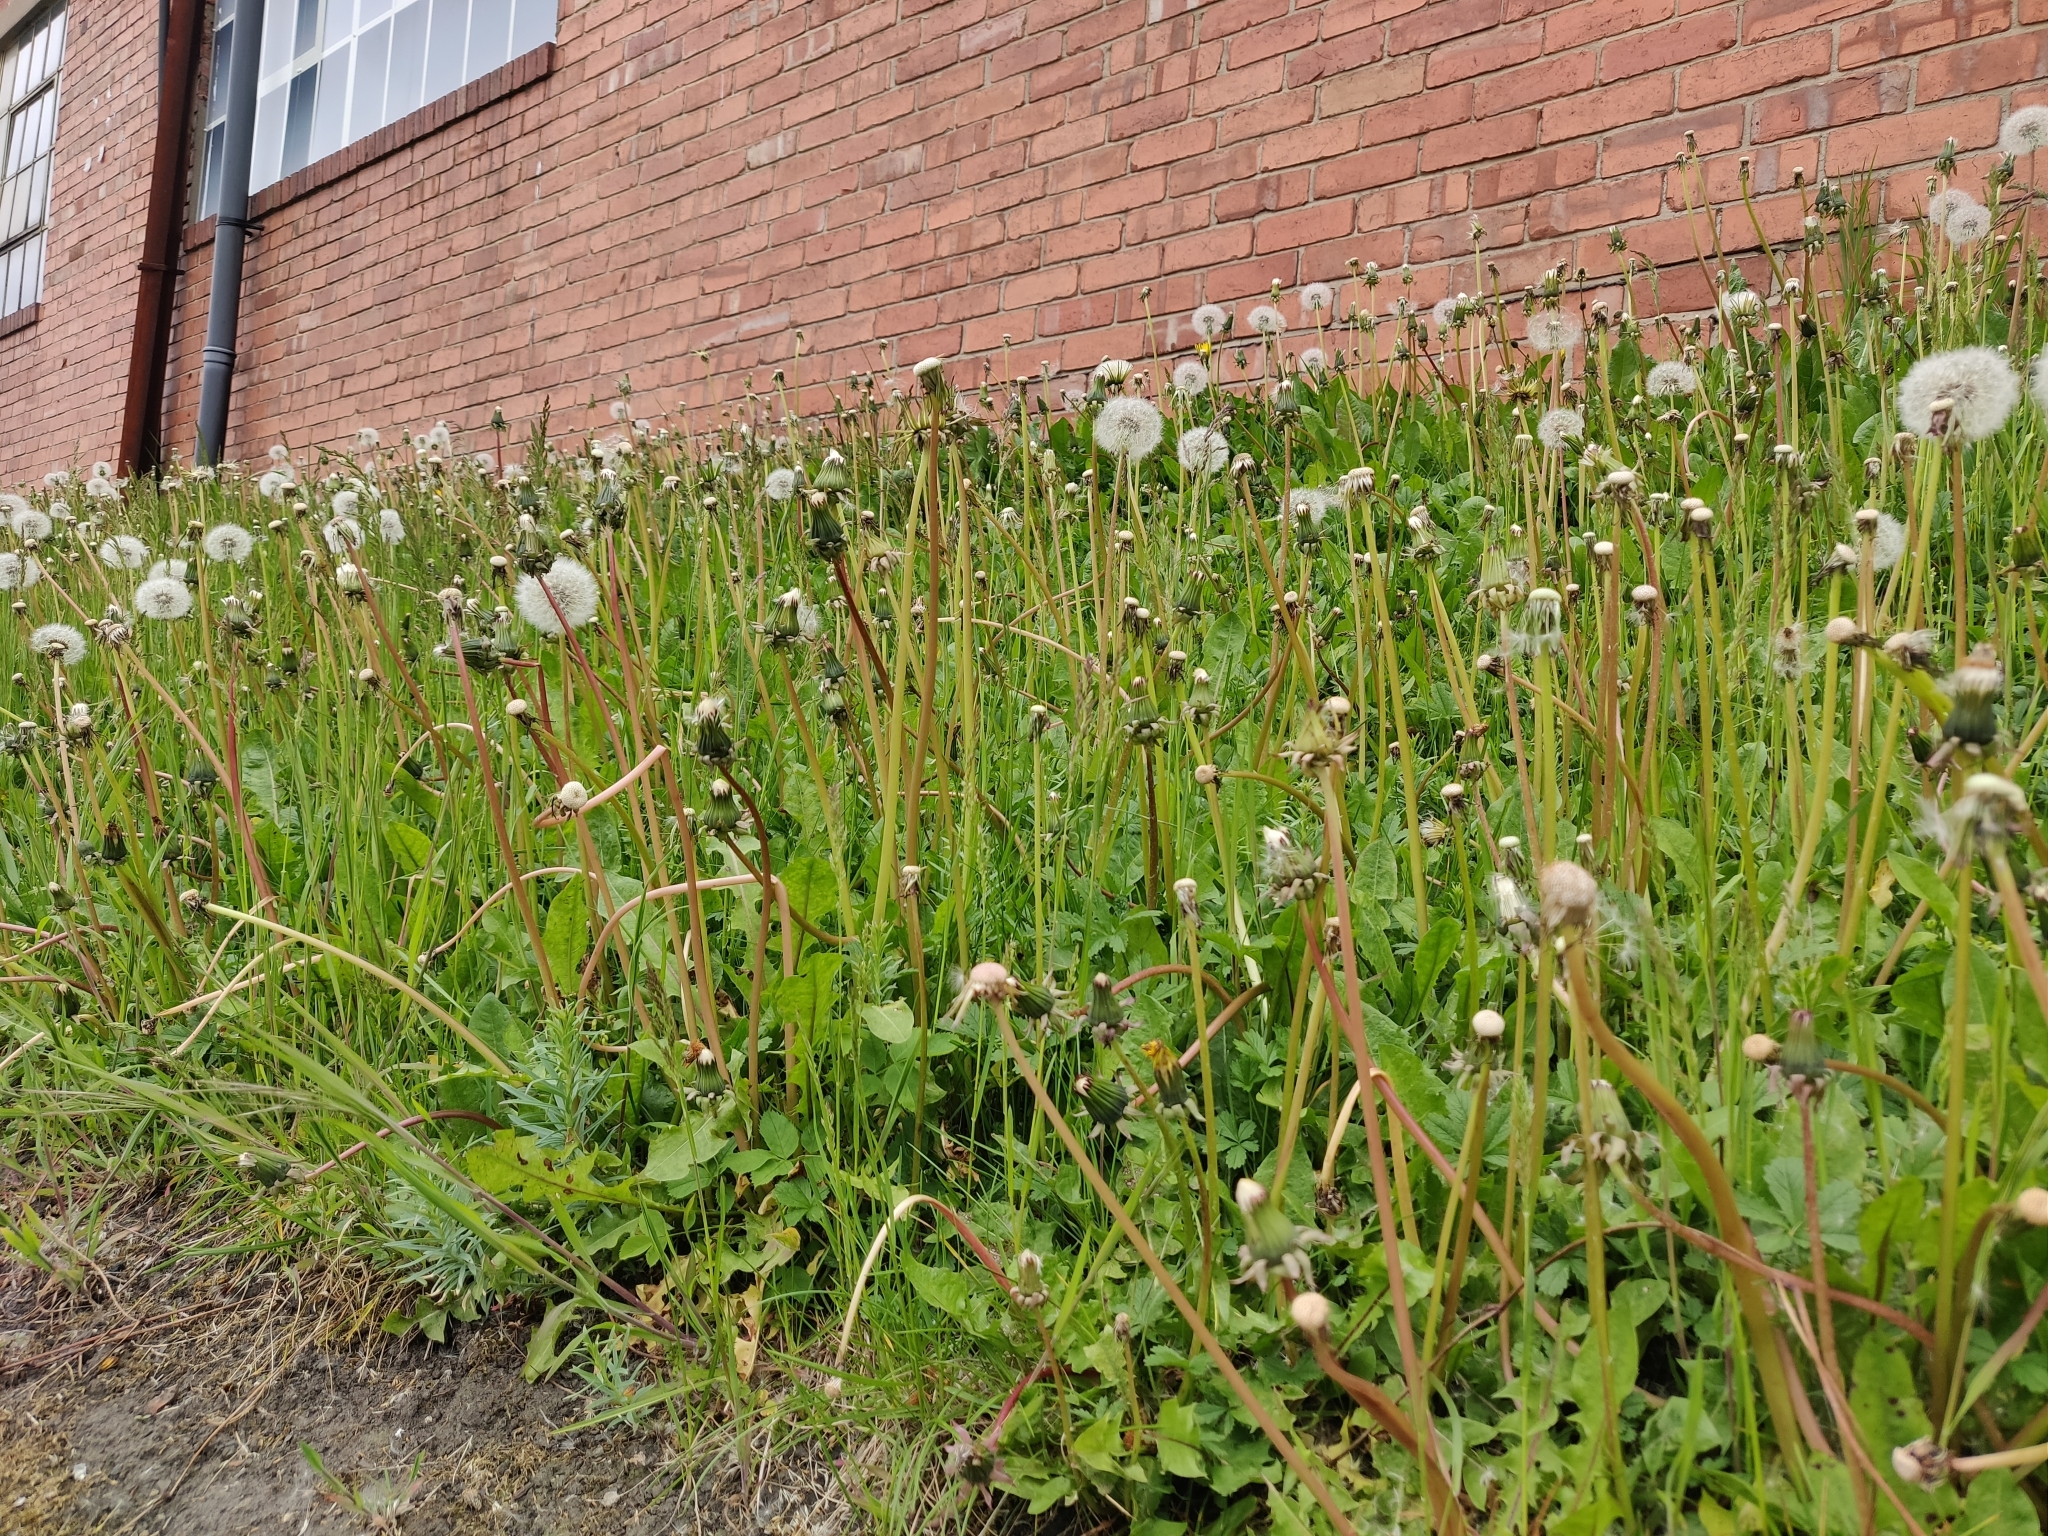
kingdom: Plantae
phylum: Tracheophyta
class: Magnoliopsida
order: Asterales
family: Asteraceae
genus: Taraxacum
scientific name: Taraxacum officinale
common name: Common dandelion
